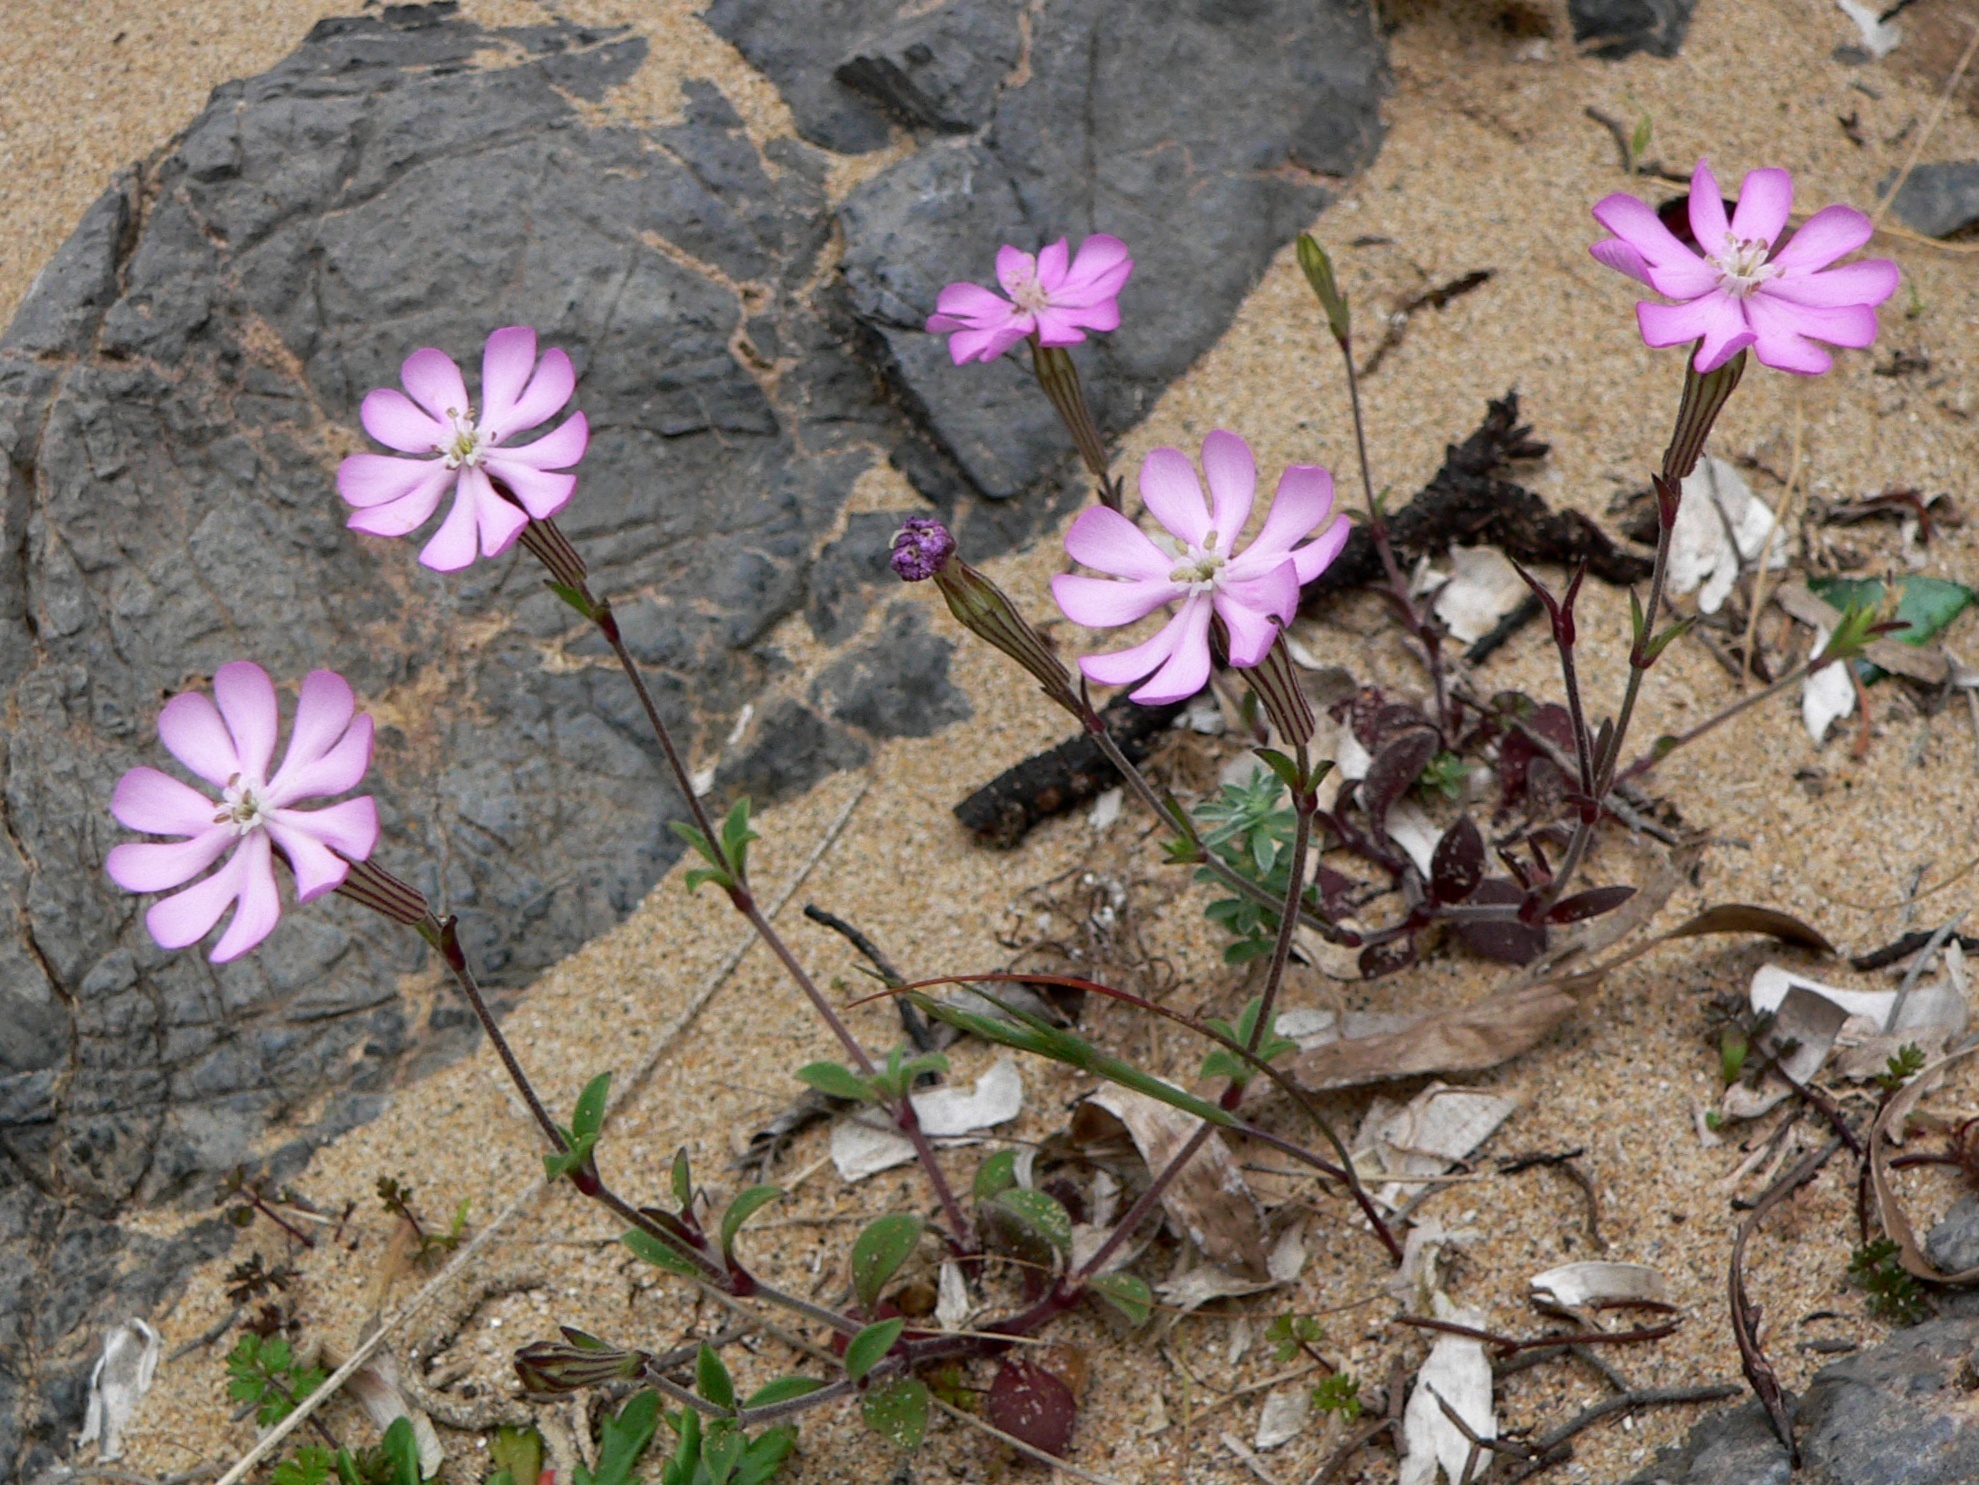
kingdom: Plantae
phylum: Tracheophyta
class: Magnoliopsida
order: Caryophyllales
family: Caryophyllaceae
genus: Silene
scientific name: Silene colorata
